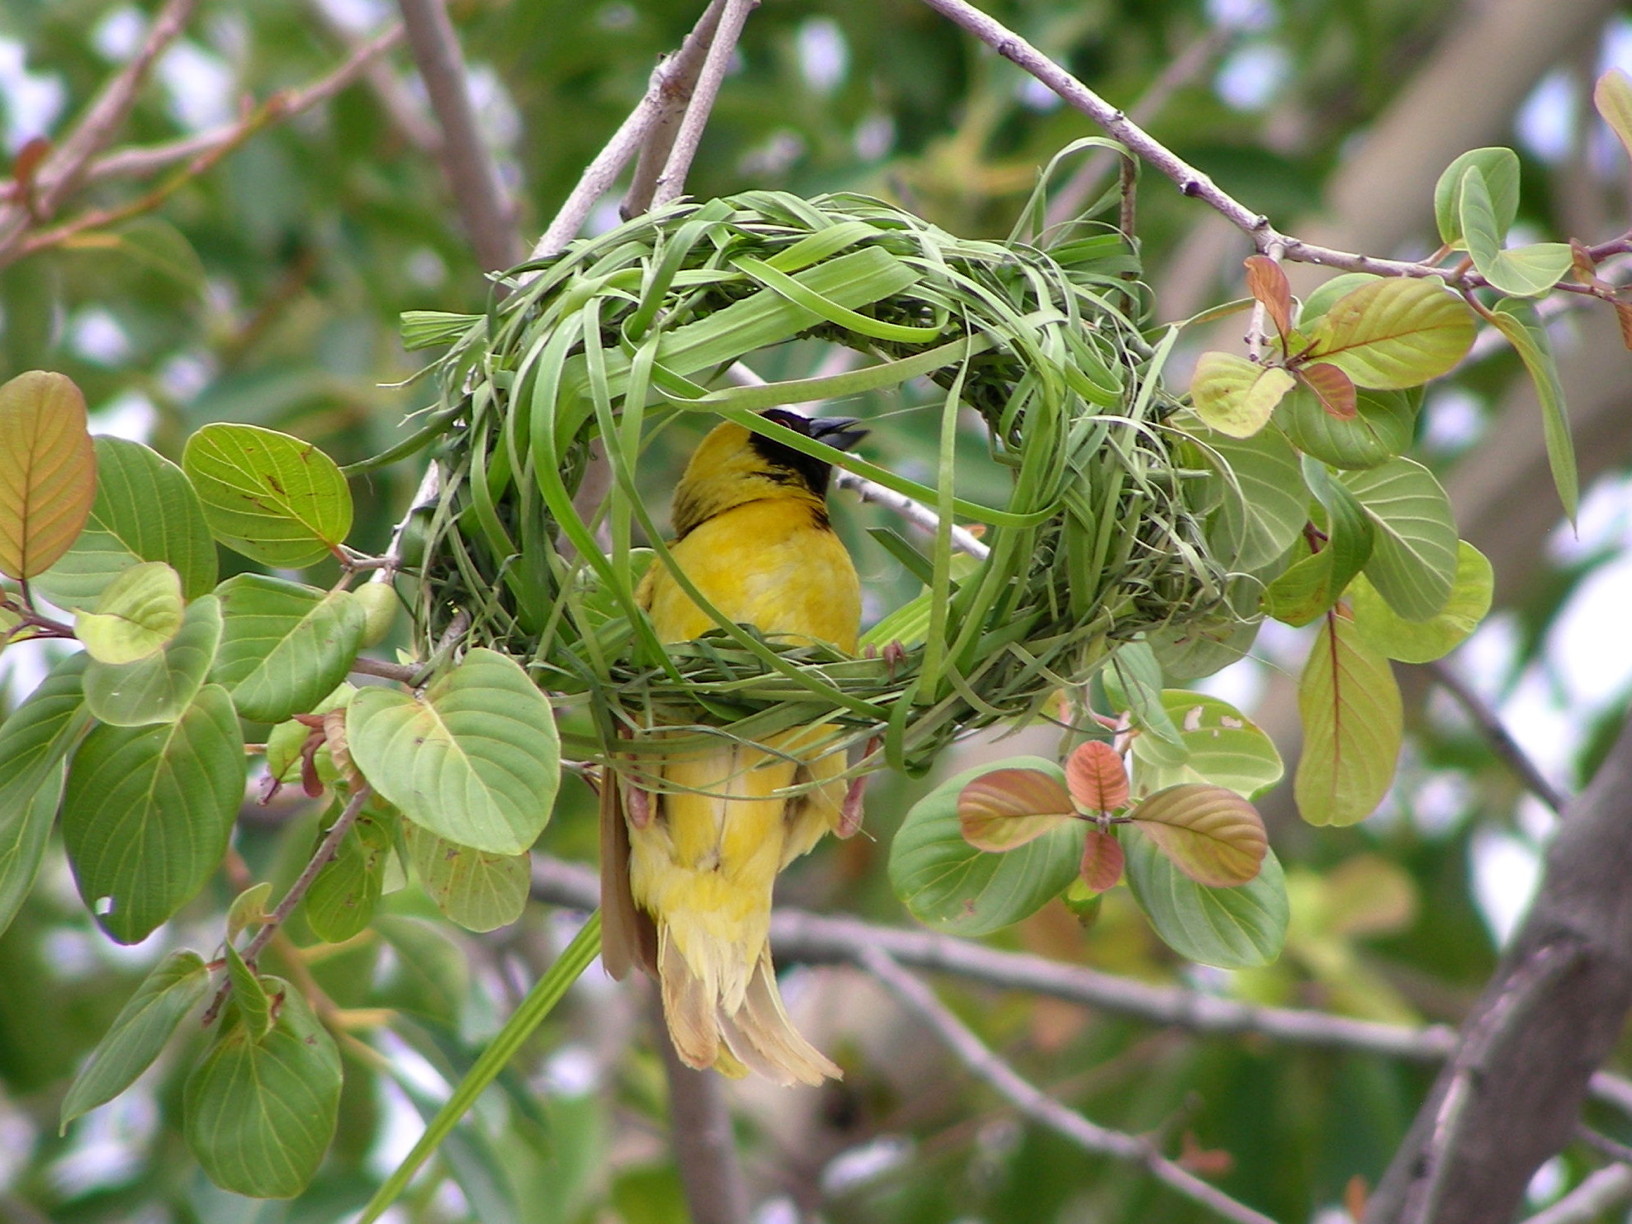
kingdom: Animalia
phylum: Chordata
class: Aves
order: Passeriformes
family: Ploceidae
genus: Ploceus
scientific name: Ploceus velatus
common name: Southern masked weaver
